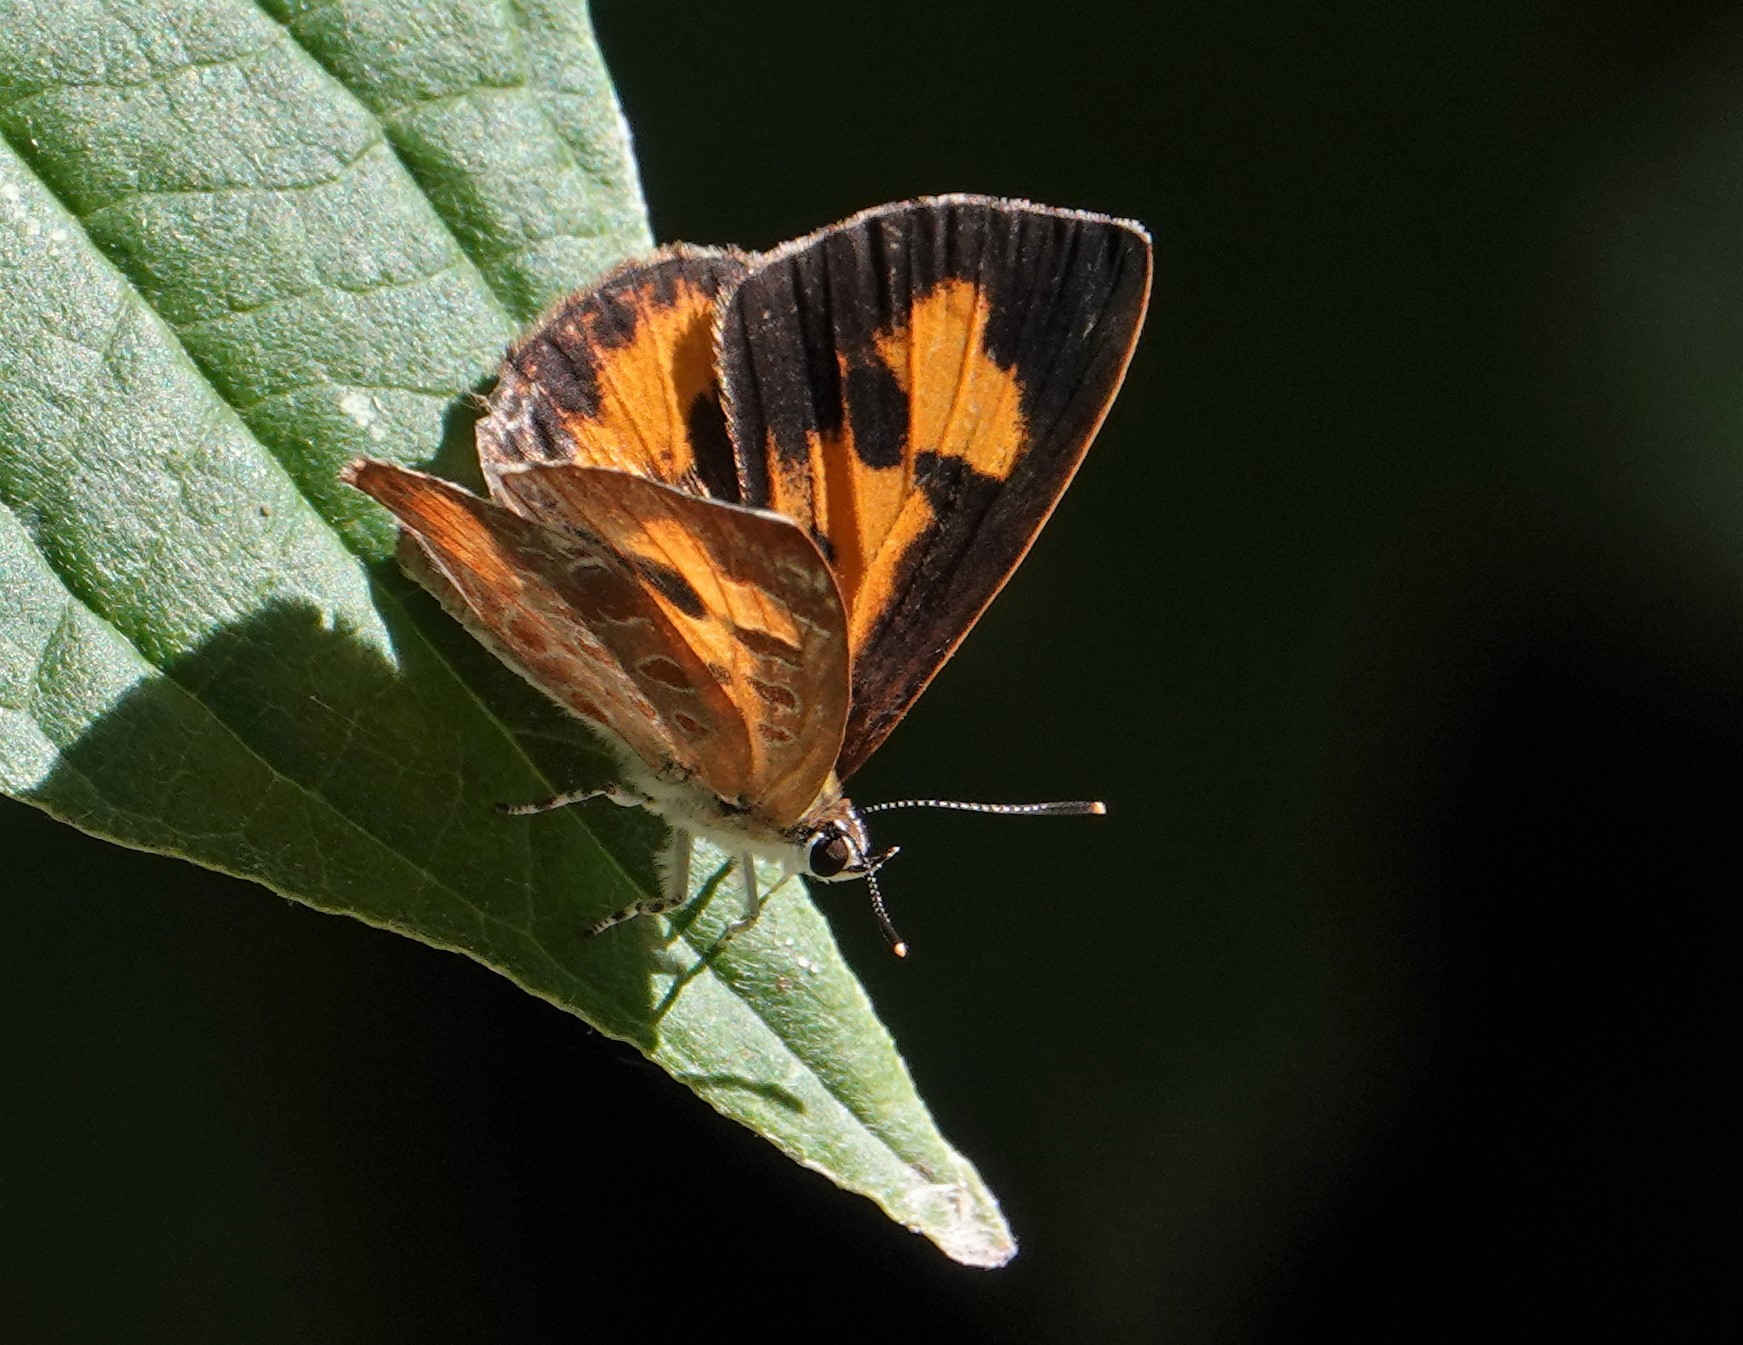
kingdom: Animalia
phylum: Arthropoda
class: Insecta
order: Lepidoptera
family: Lycaenidae
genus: Feniseca
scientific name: Feniseca tarquinius
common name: Harvester
